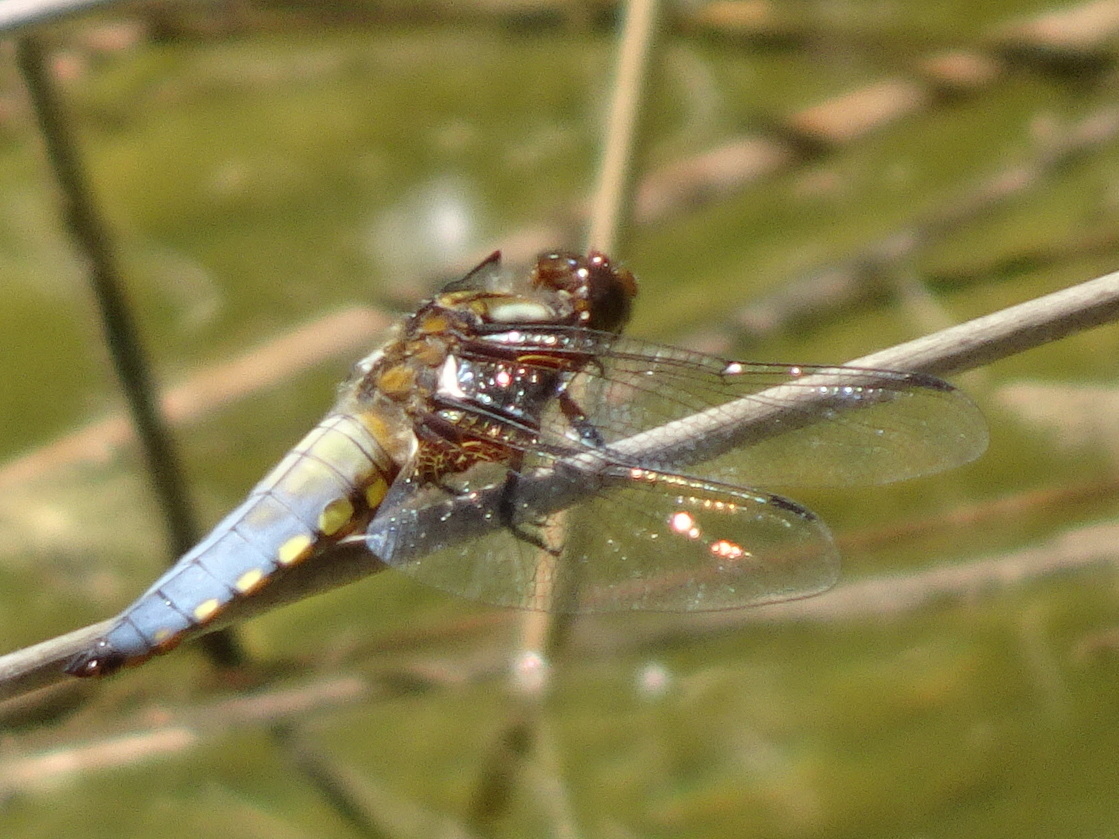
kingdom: Animalia
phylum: Arthropoda
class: Insecta
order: Odonata
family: Libellulidae
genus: Libellula
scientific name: Libellula depressa
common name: Broad-bodied chaser
